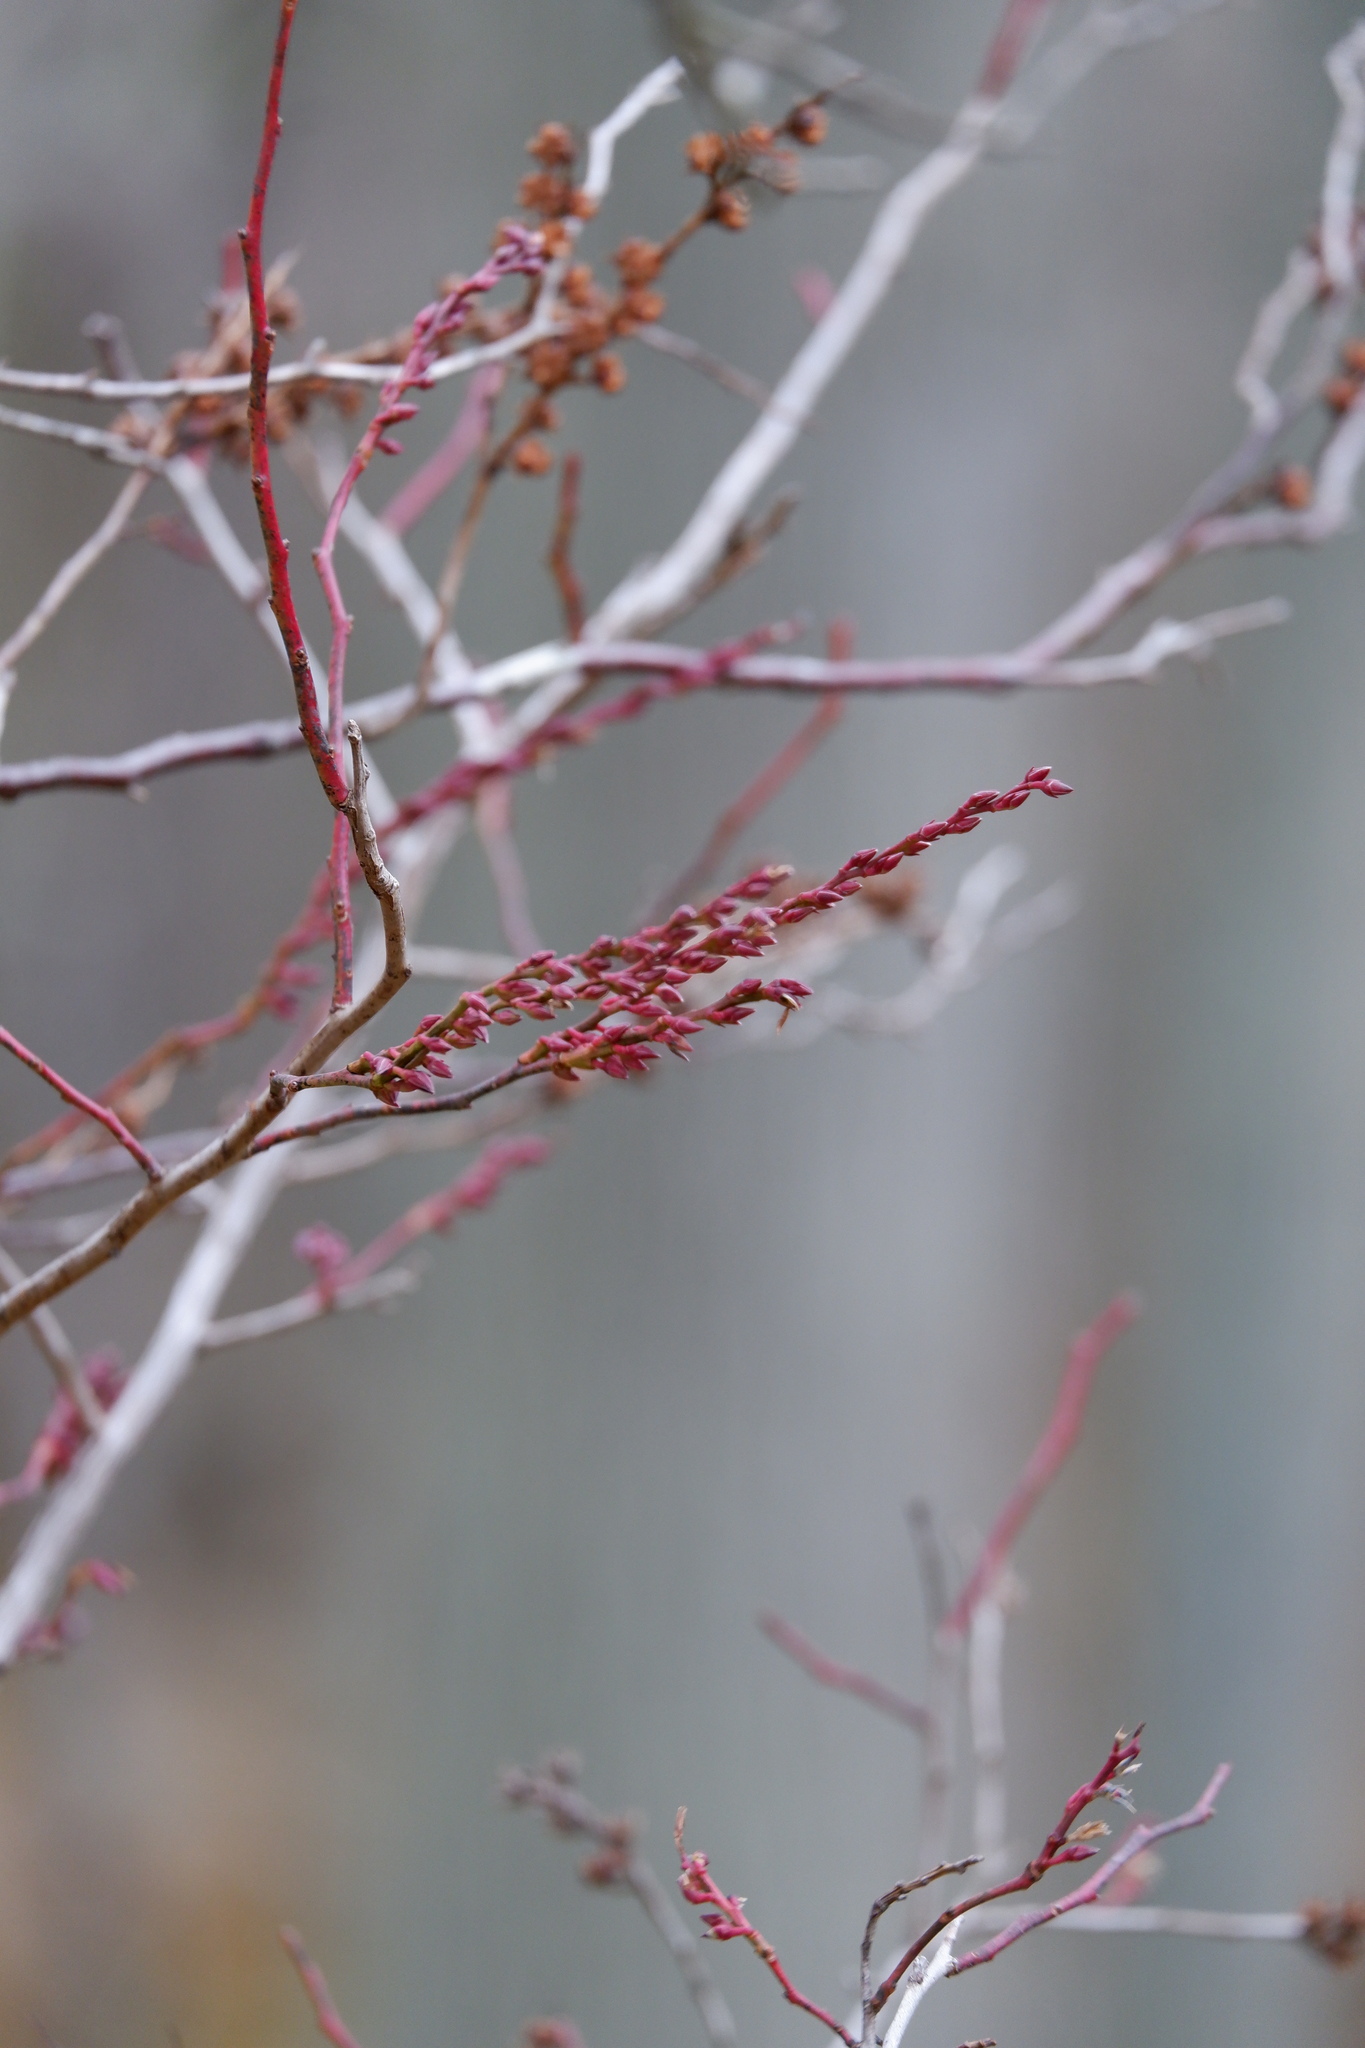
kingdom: Plantae
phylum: Tracheophyta
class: Magnoliopsida
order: Ericales
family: Ericaceae
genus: Eubotrys
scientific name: Eubotrys racemosa
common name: Fetterbush
